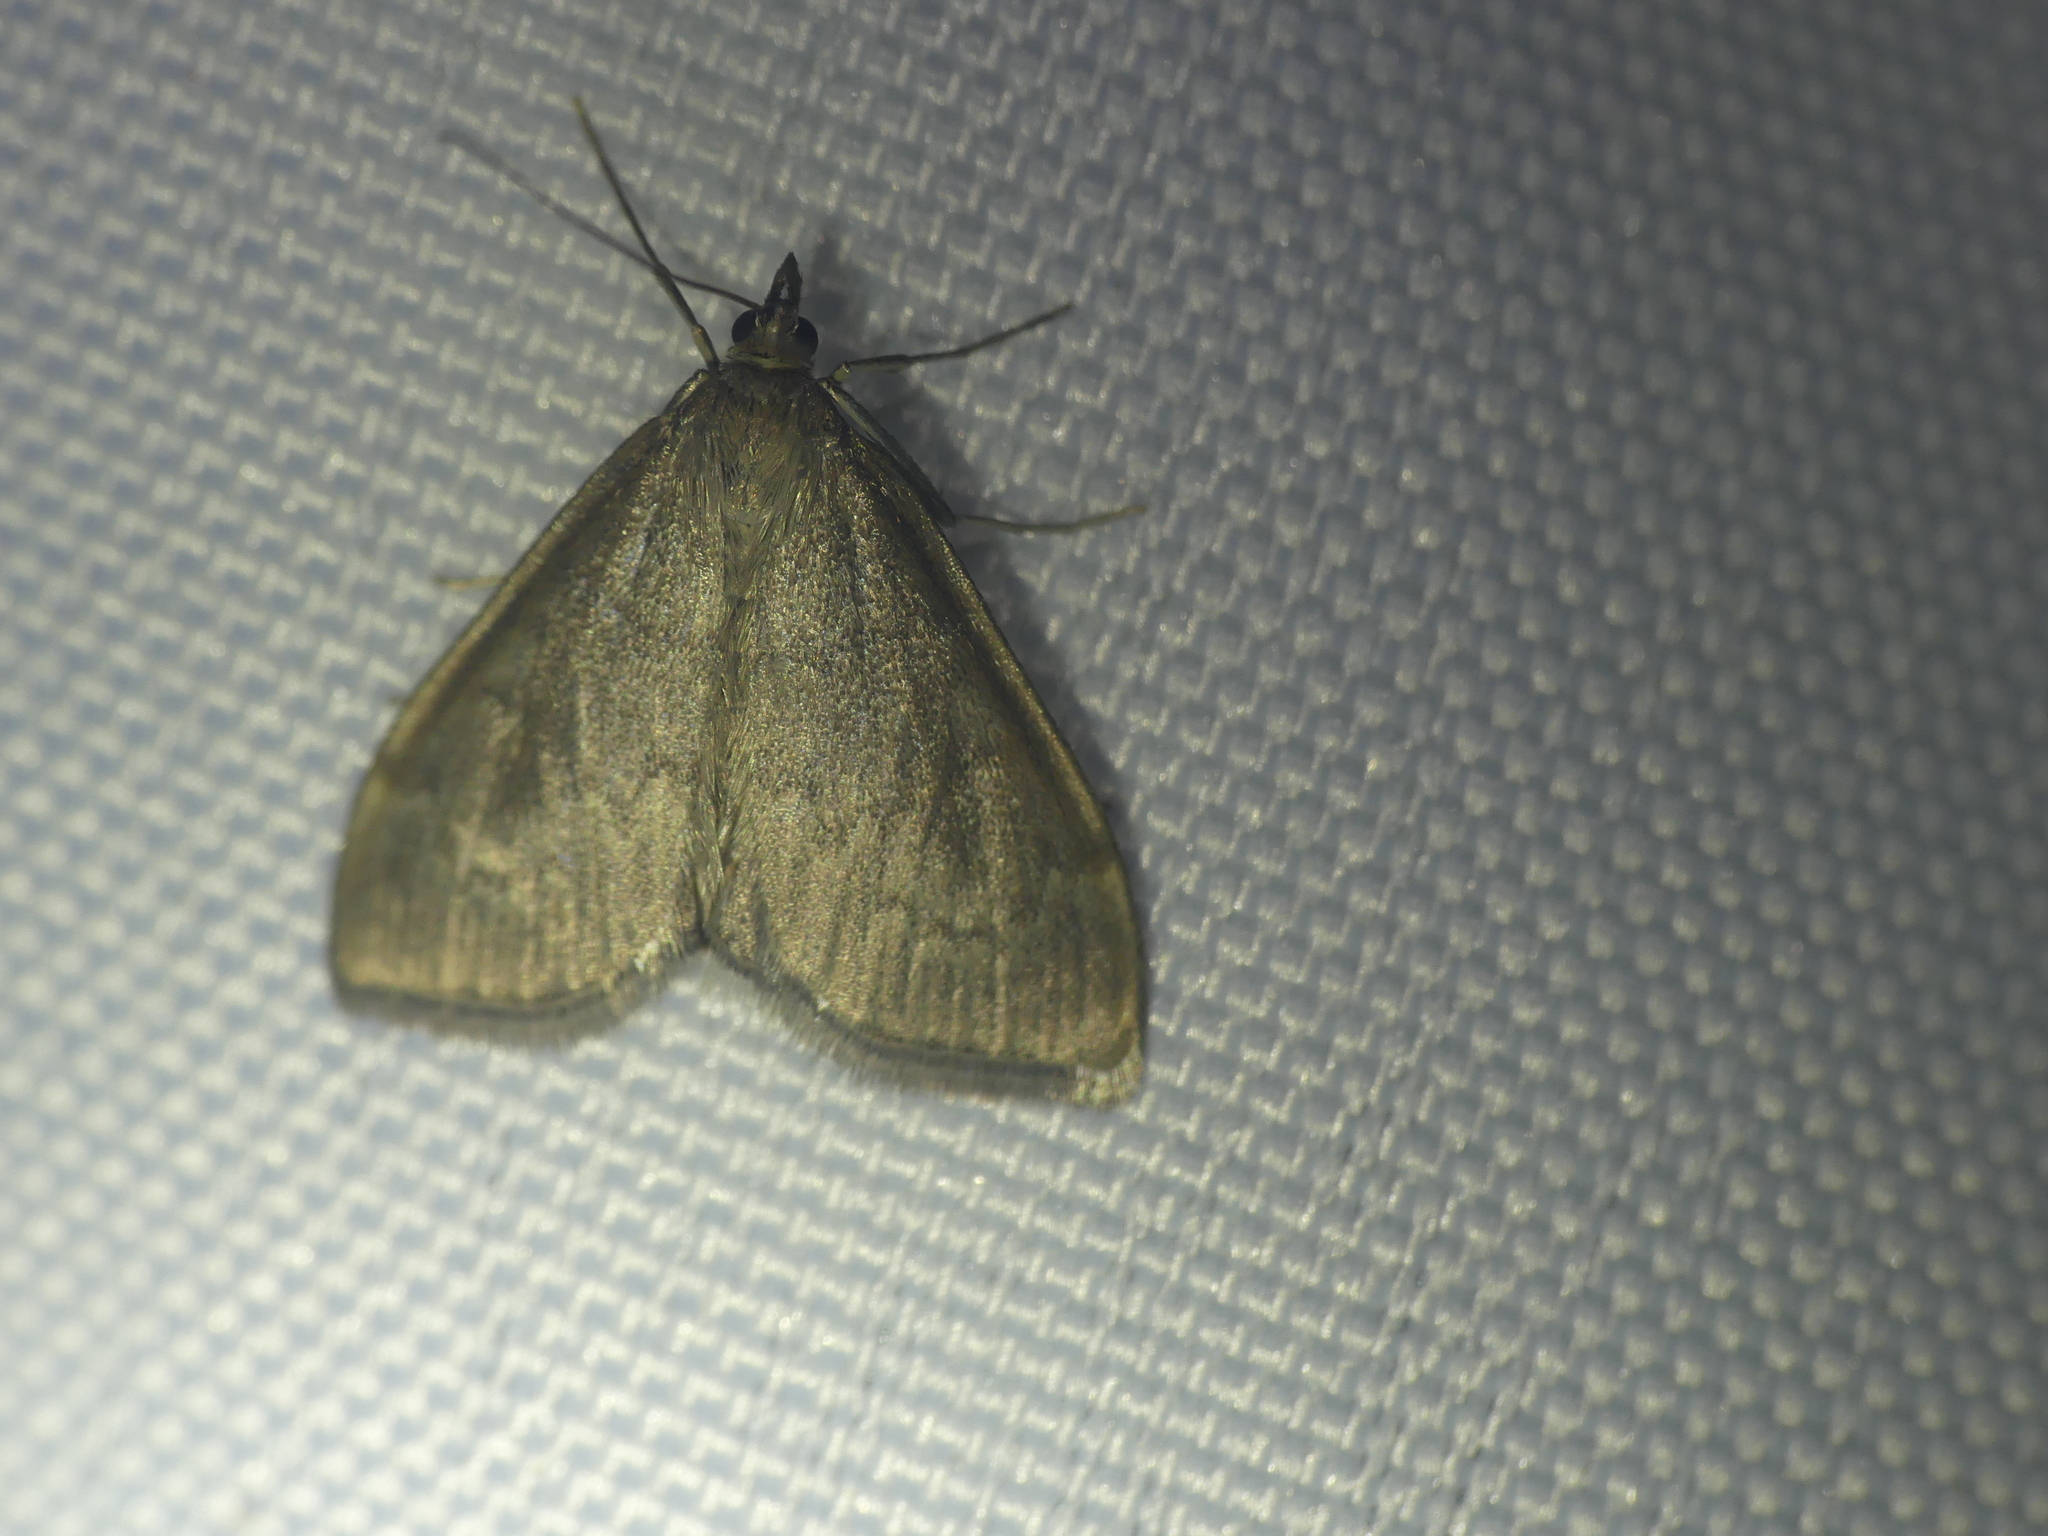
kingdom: Animalia
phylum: Arthropoda
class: Insecta
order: Lepidoptera
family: Crambidae
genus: Anania
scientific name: Anania fuscalis
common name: Cinerous pearl
